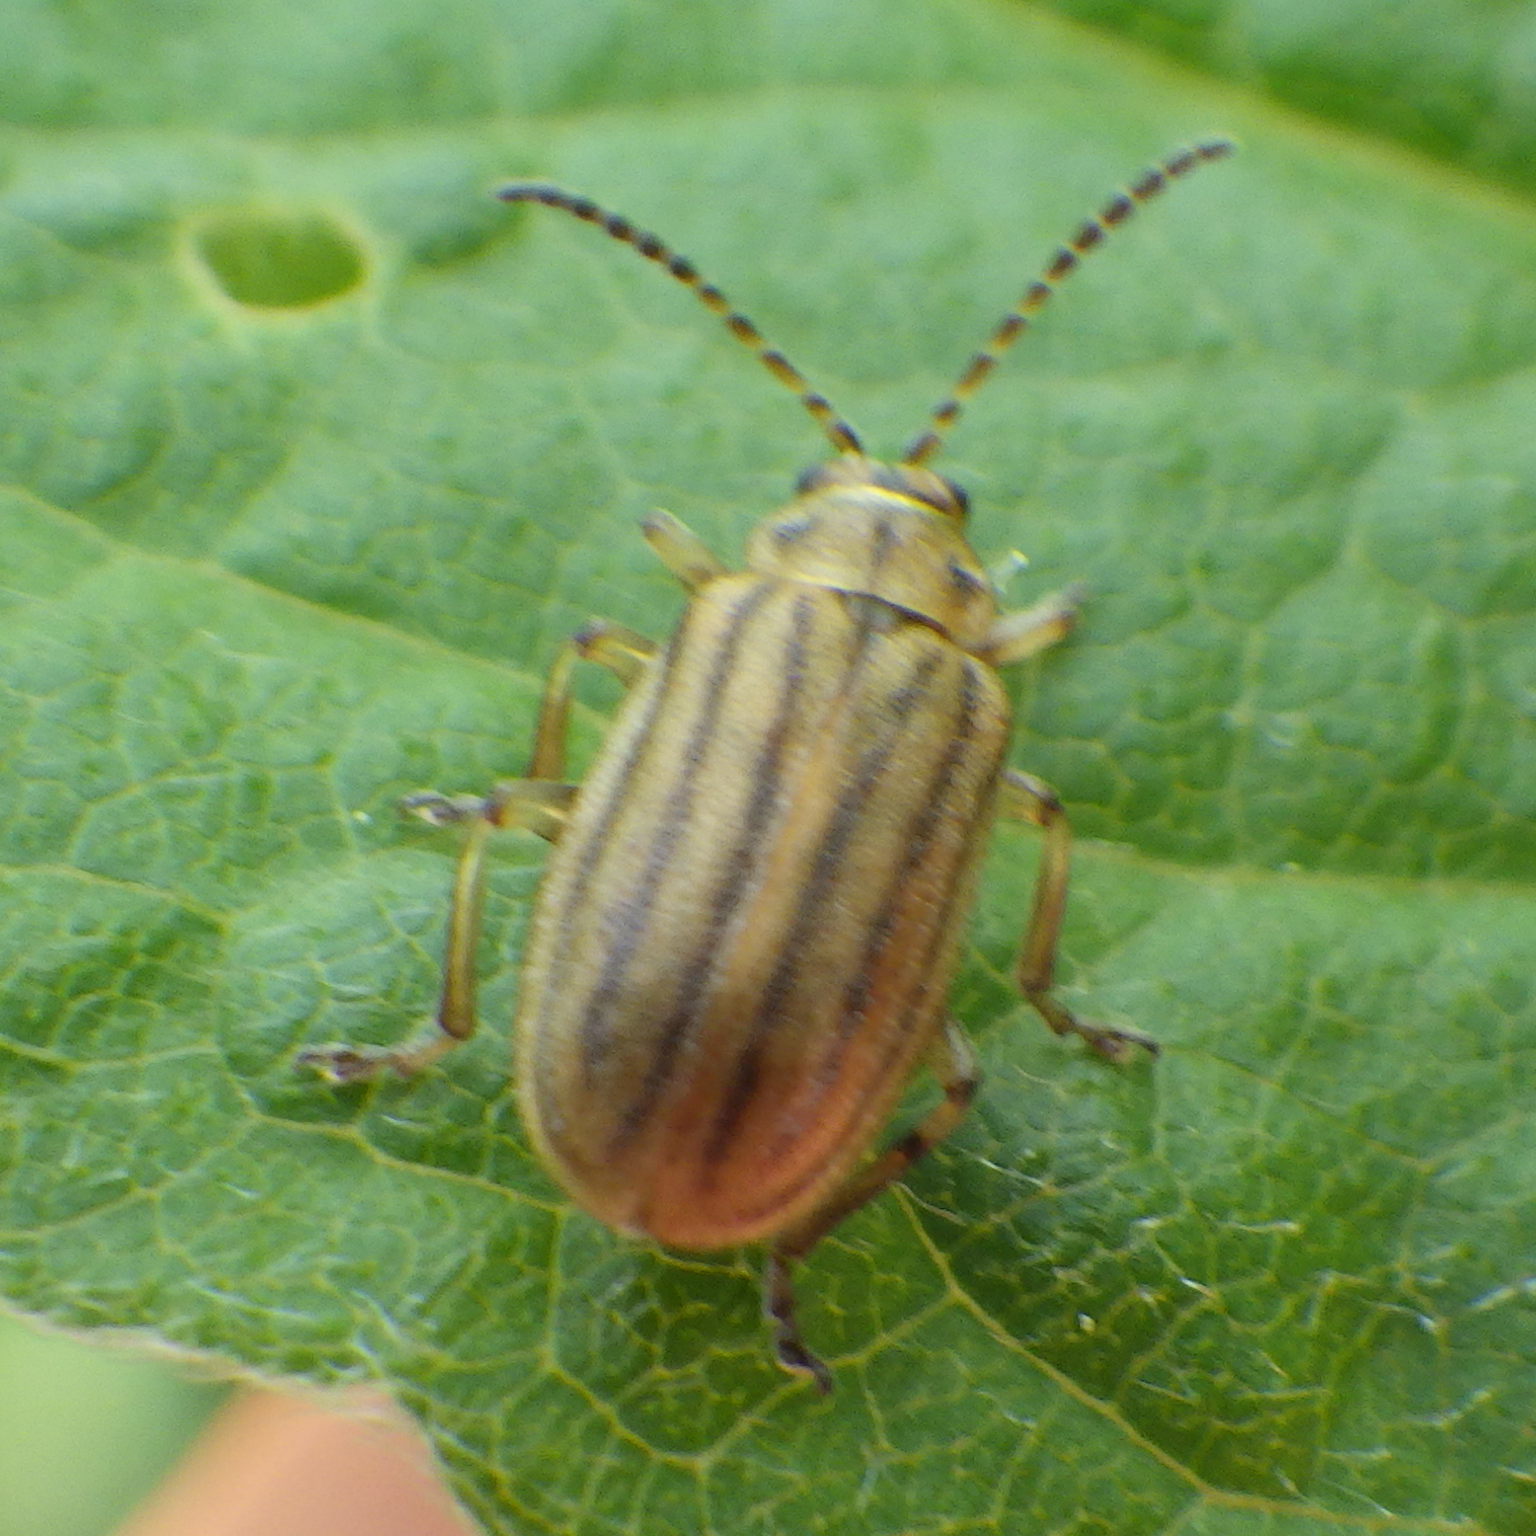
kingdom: Animalia
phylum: Arthropoda
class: Insecta
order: Coleoptera
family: Chrysomelidae
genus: Ophraella
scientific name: Ophraella conferta
